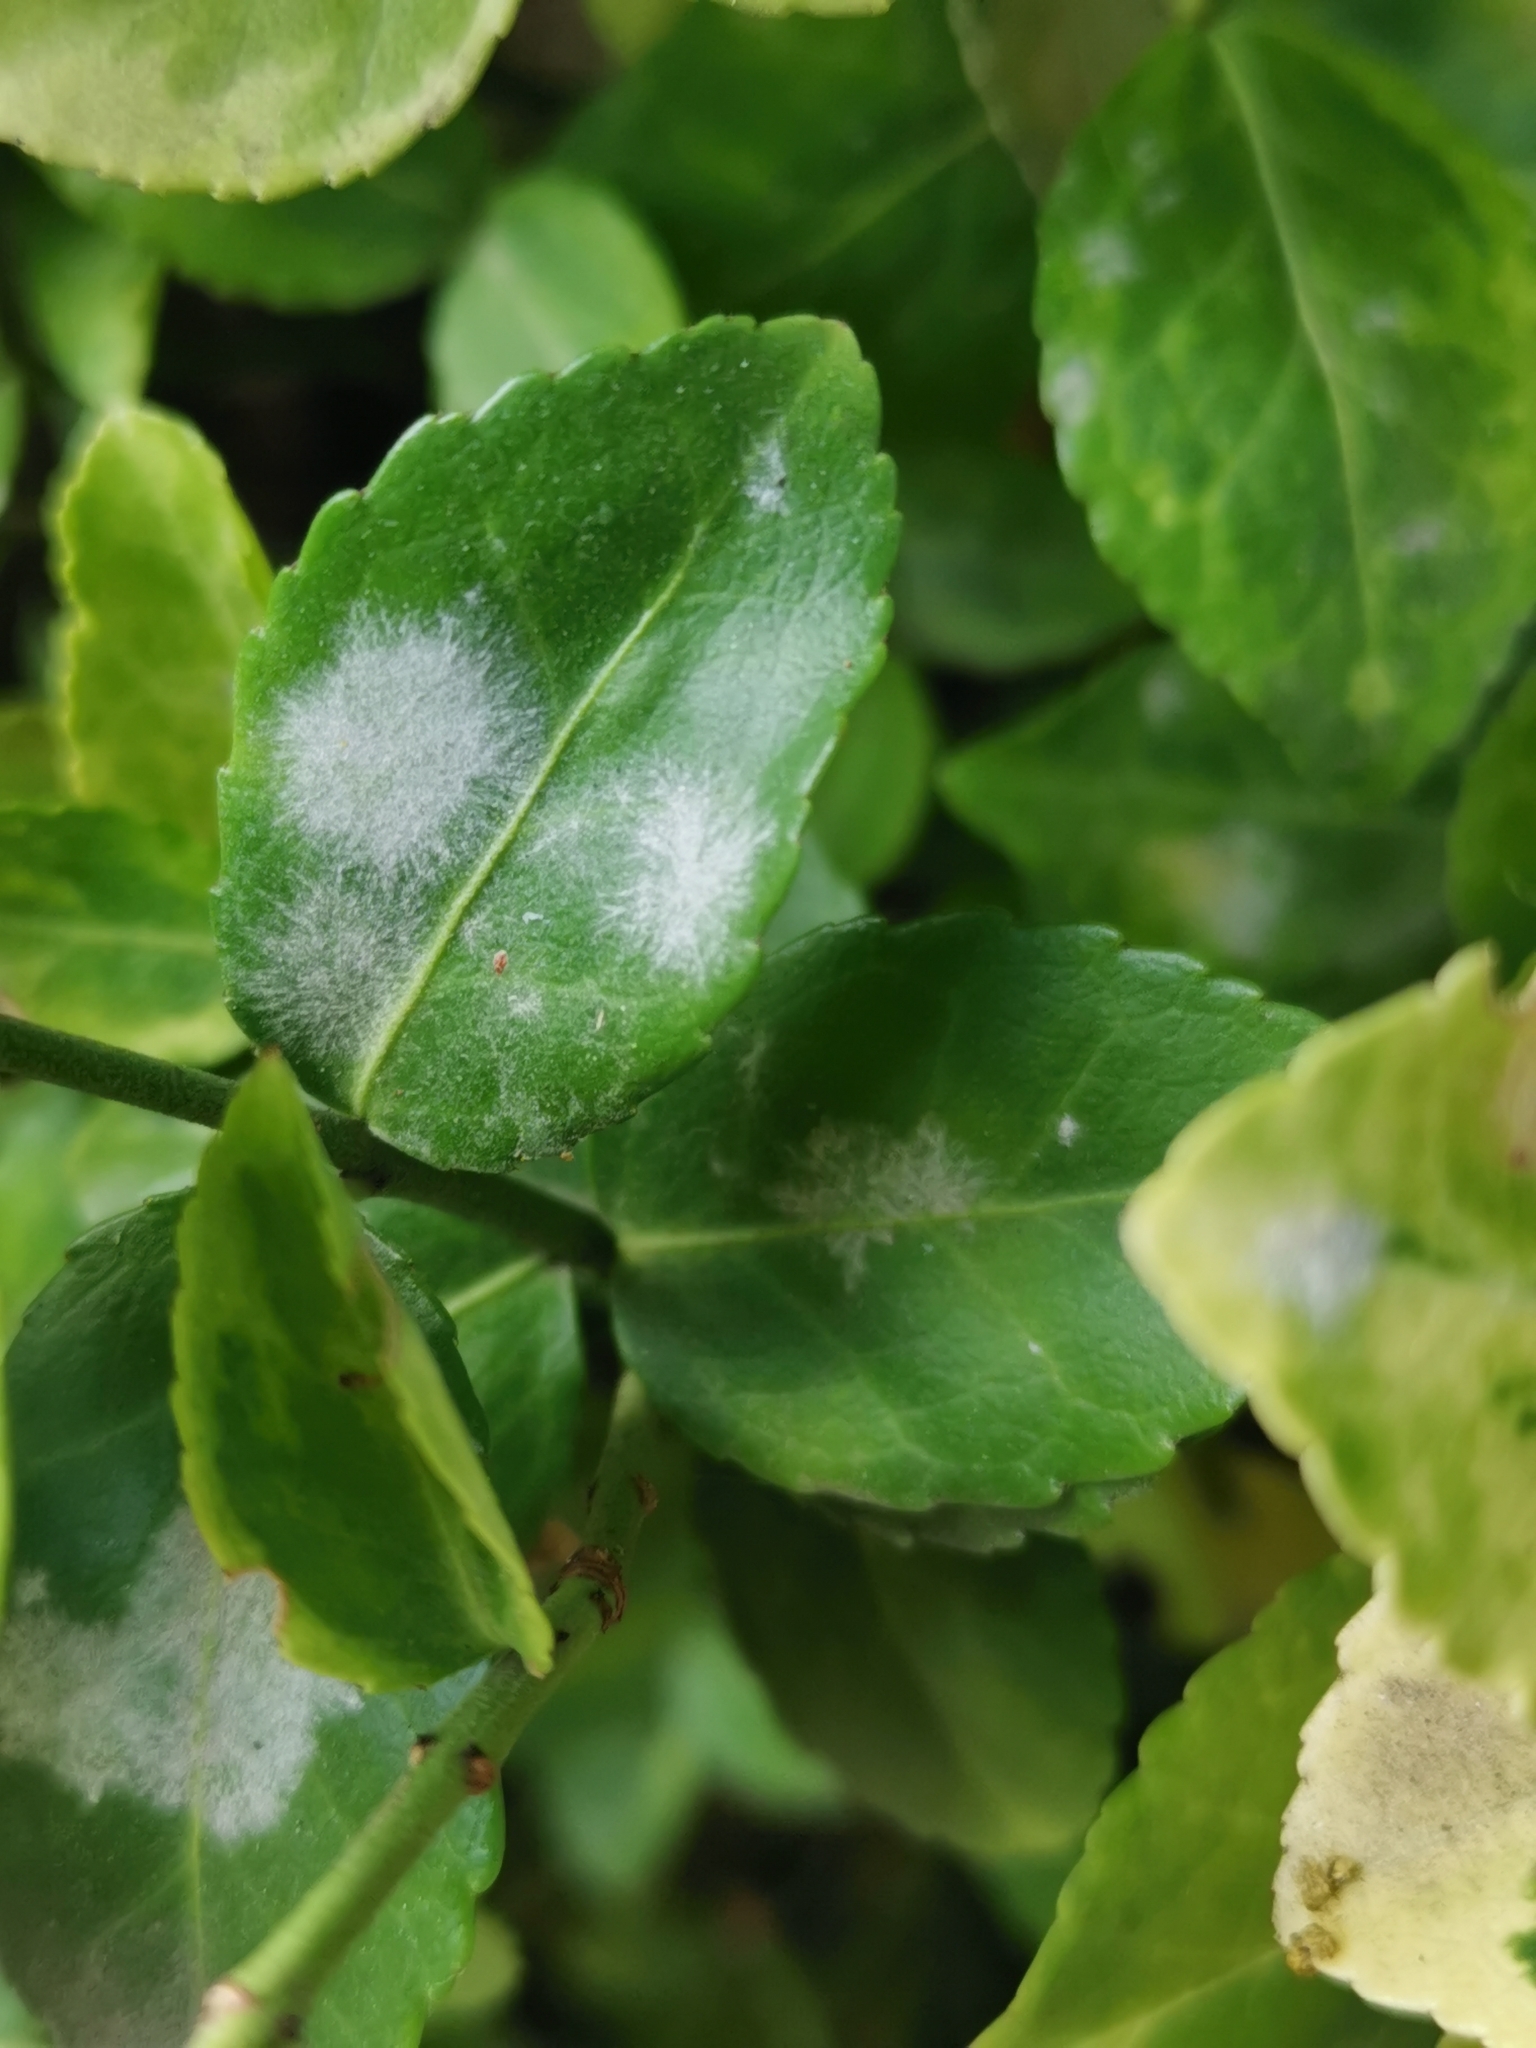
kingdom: Fungi
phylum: Ascomycota
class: Leotiomycetes
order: Helotiales
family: Erysiphaceae
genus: Erysiphe
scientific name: Erysiphe euonymicola
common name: Spindletree mildew
